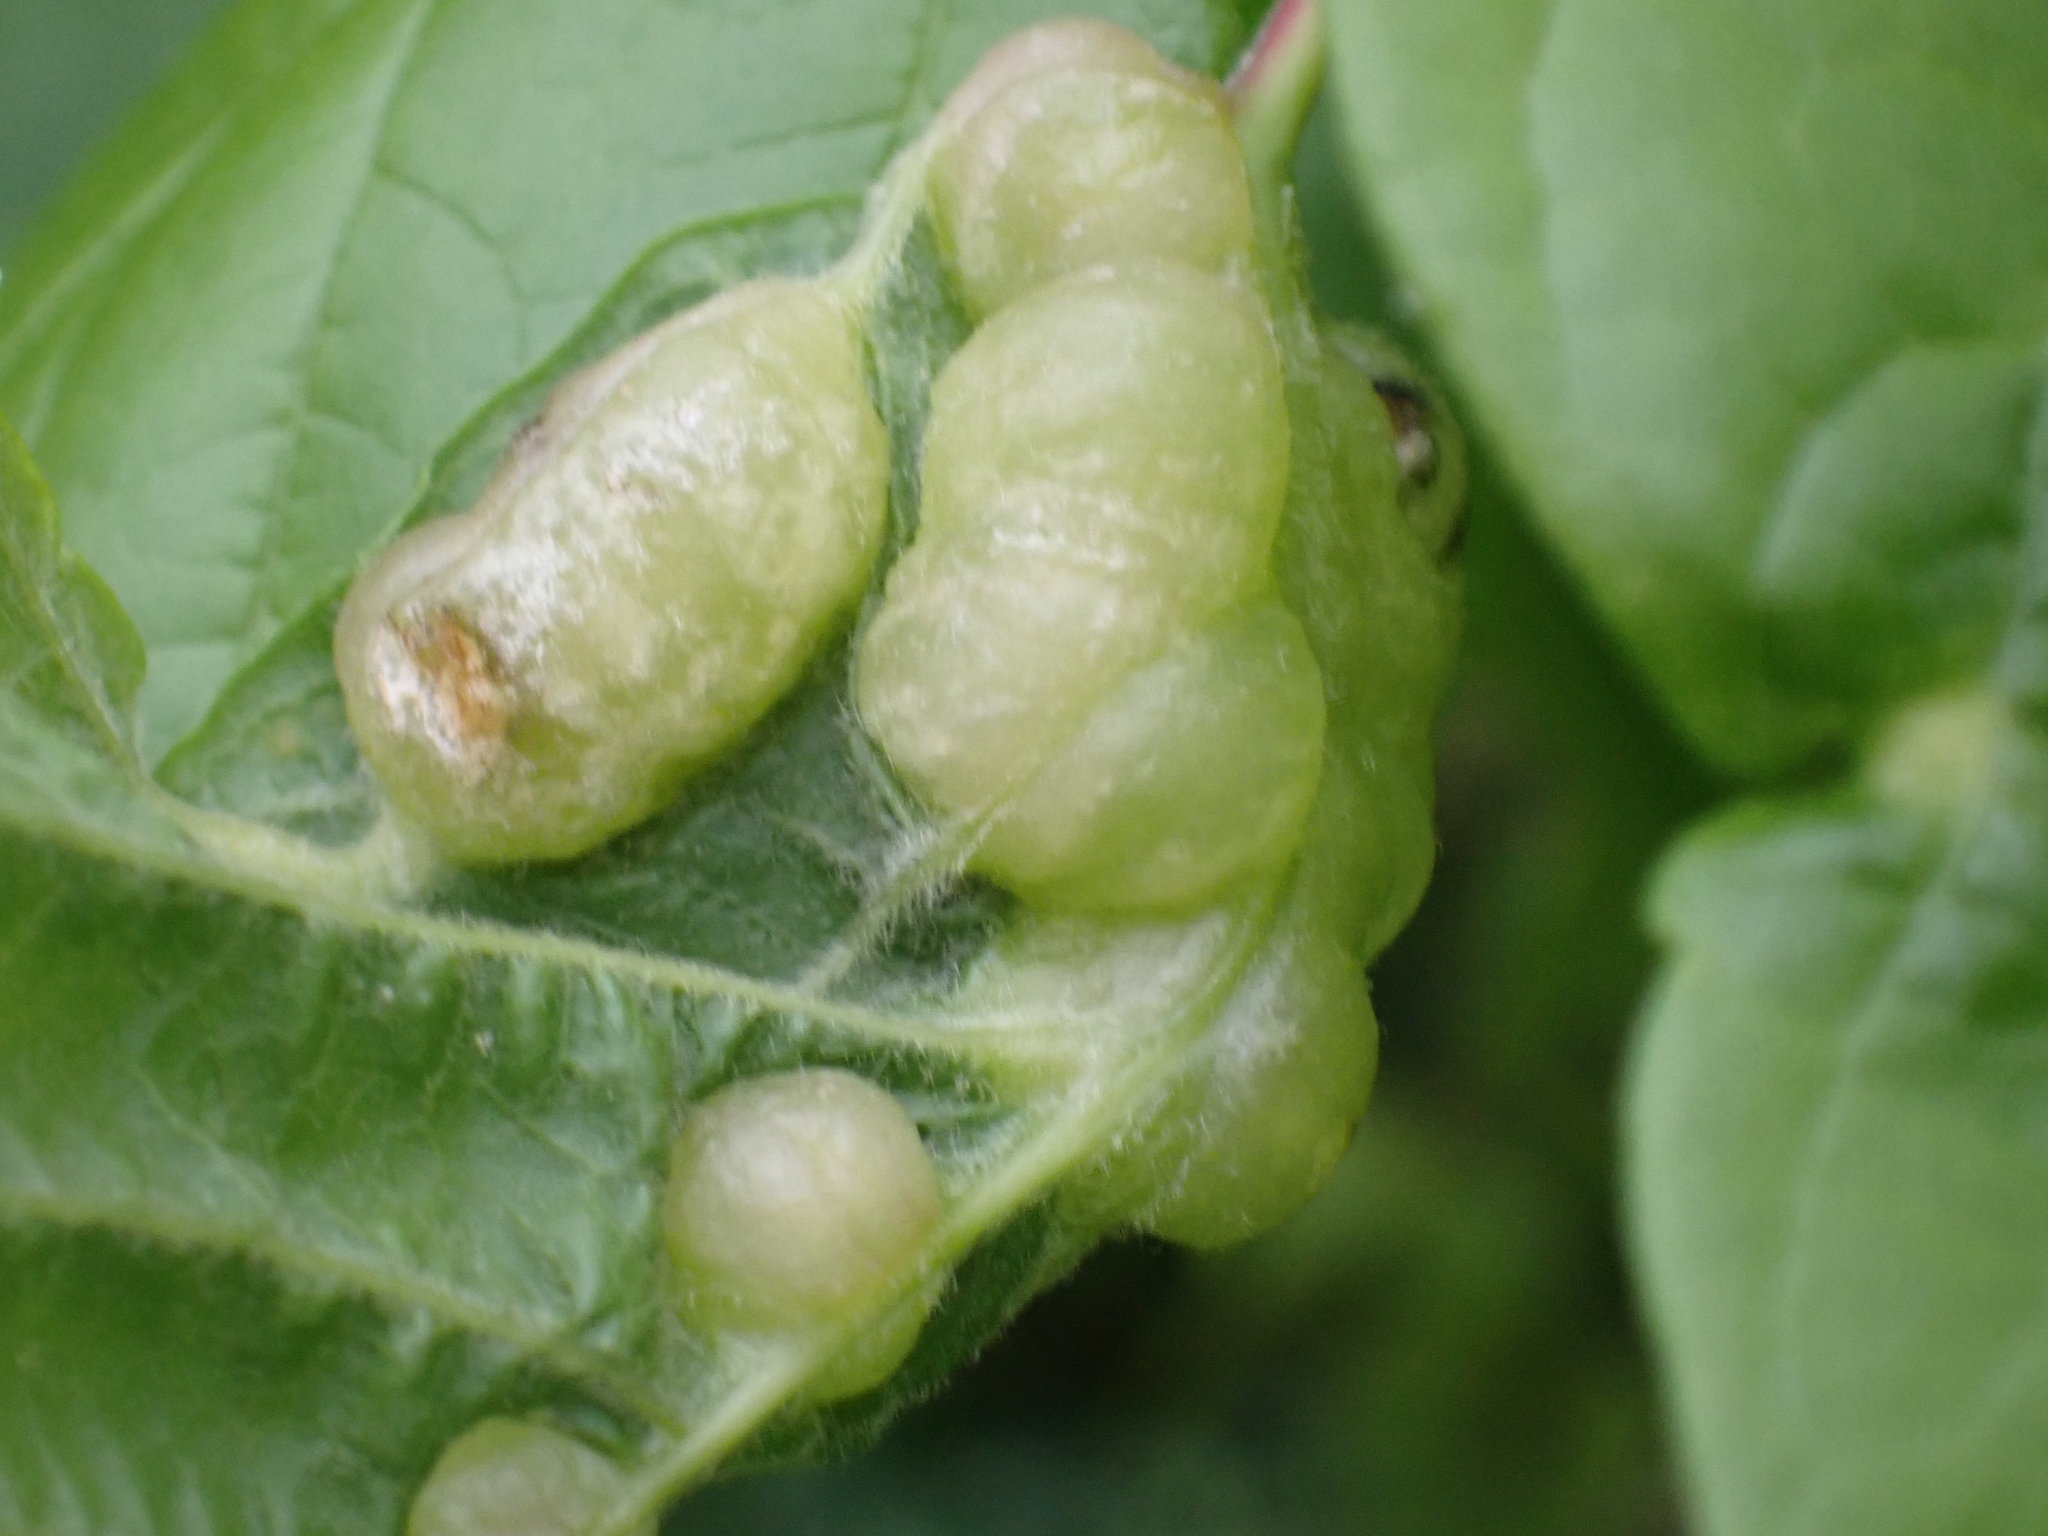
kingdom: Animalia
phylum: Arthropoda
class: Insecta
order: Diptera
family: Cecidomyiidae
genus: Contarinia
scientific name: Contarinia negundinis
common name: Boxelder budgall midge
